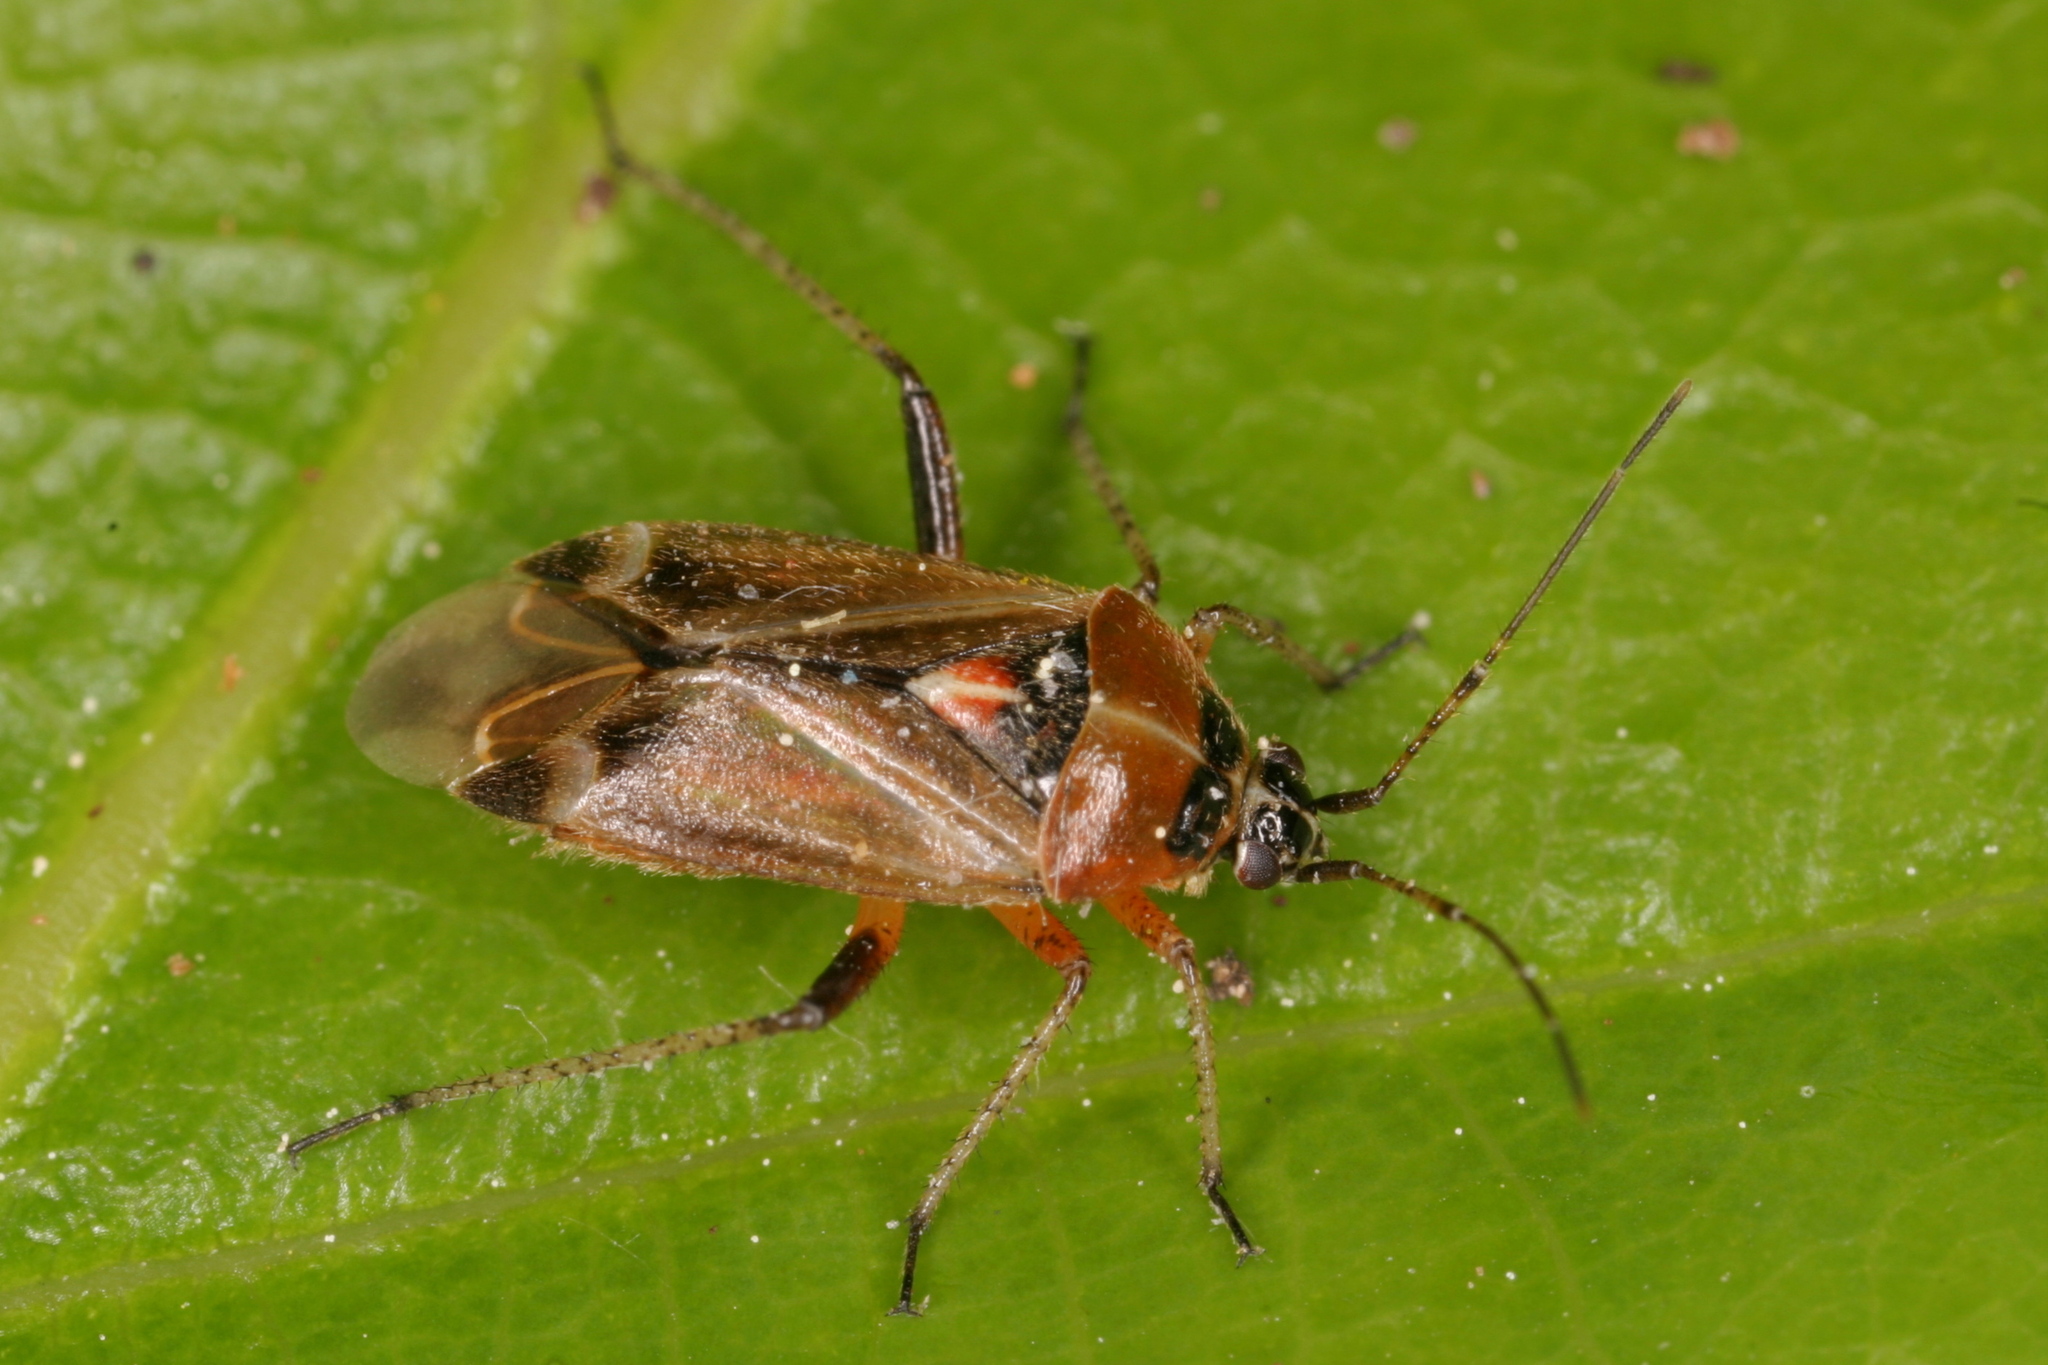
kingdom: Animalia
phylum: Arthropoda
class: Insecta
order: Hemiptera
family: Miridae
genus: Harpocera
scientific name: Harpocera thoracica
